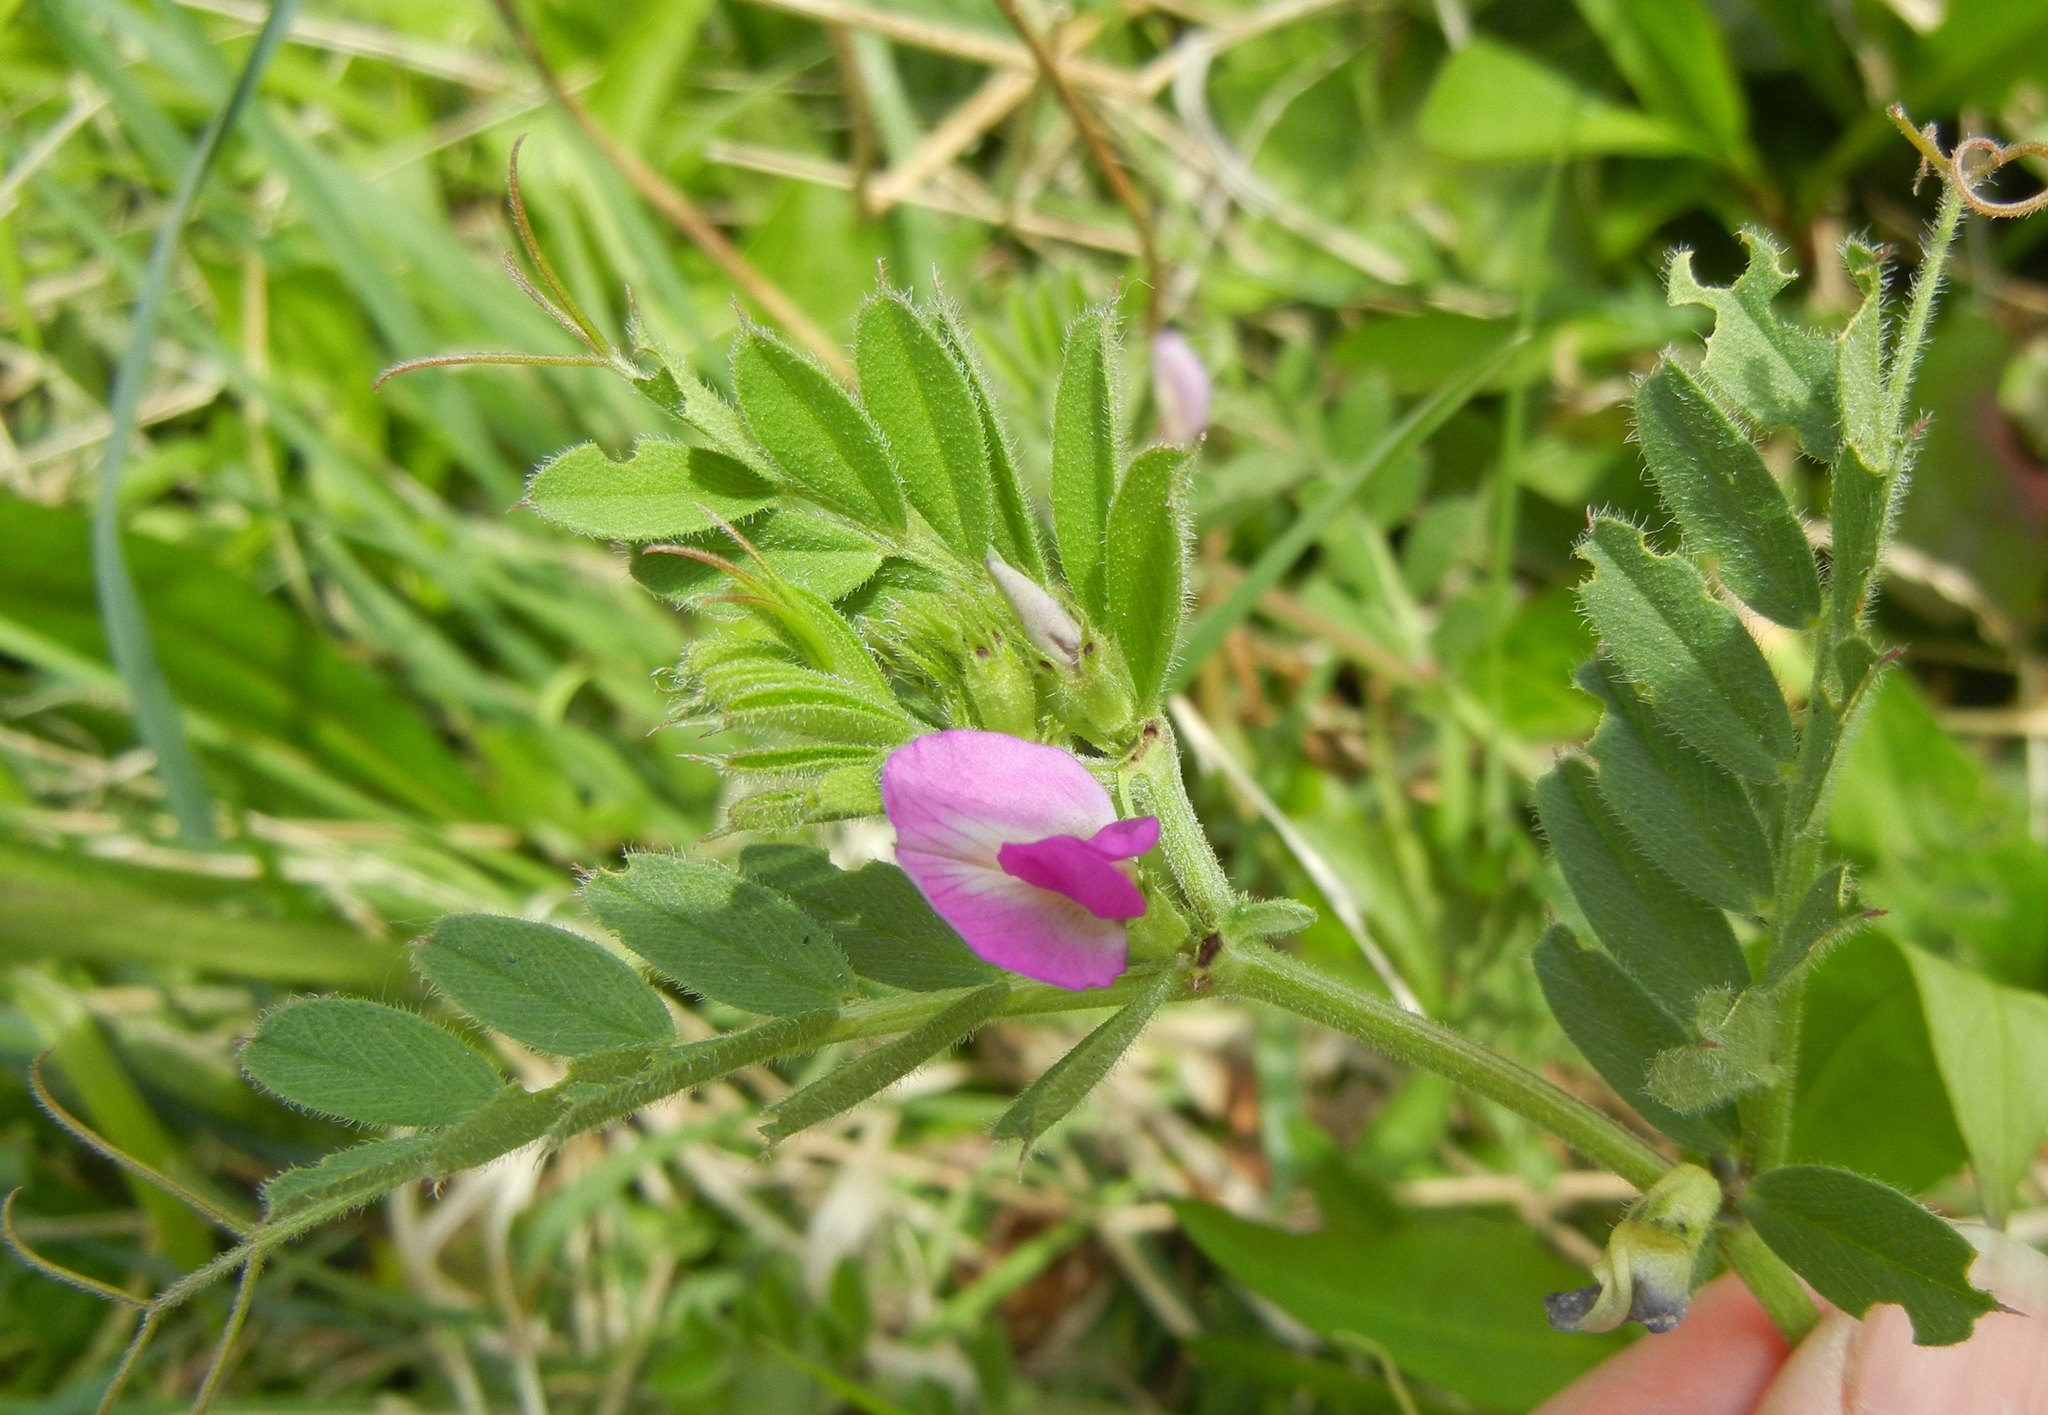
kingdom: Plantae
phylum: Tracheophyta
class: Magnoliopsida
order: Fabales
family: Fabaceae
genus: Vicia
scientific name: Vicia sativa
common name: Garden vetch
